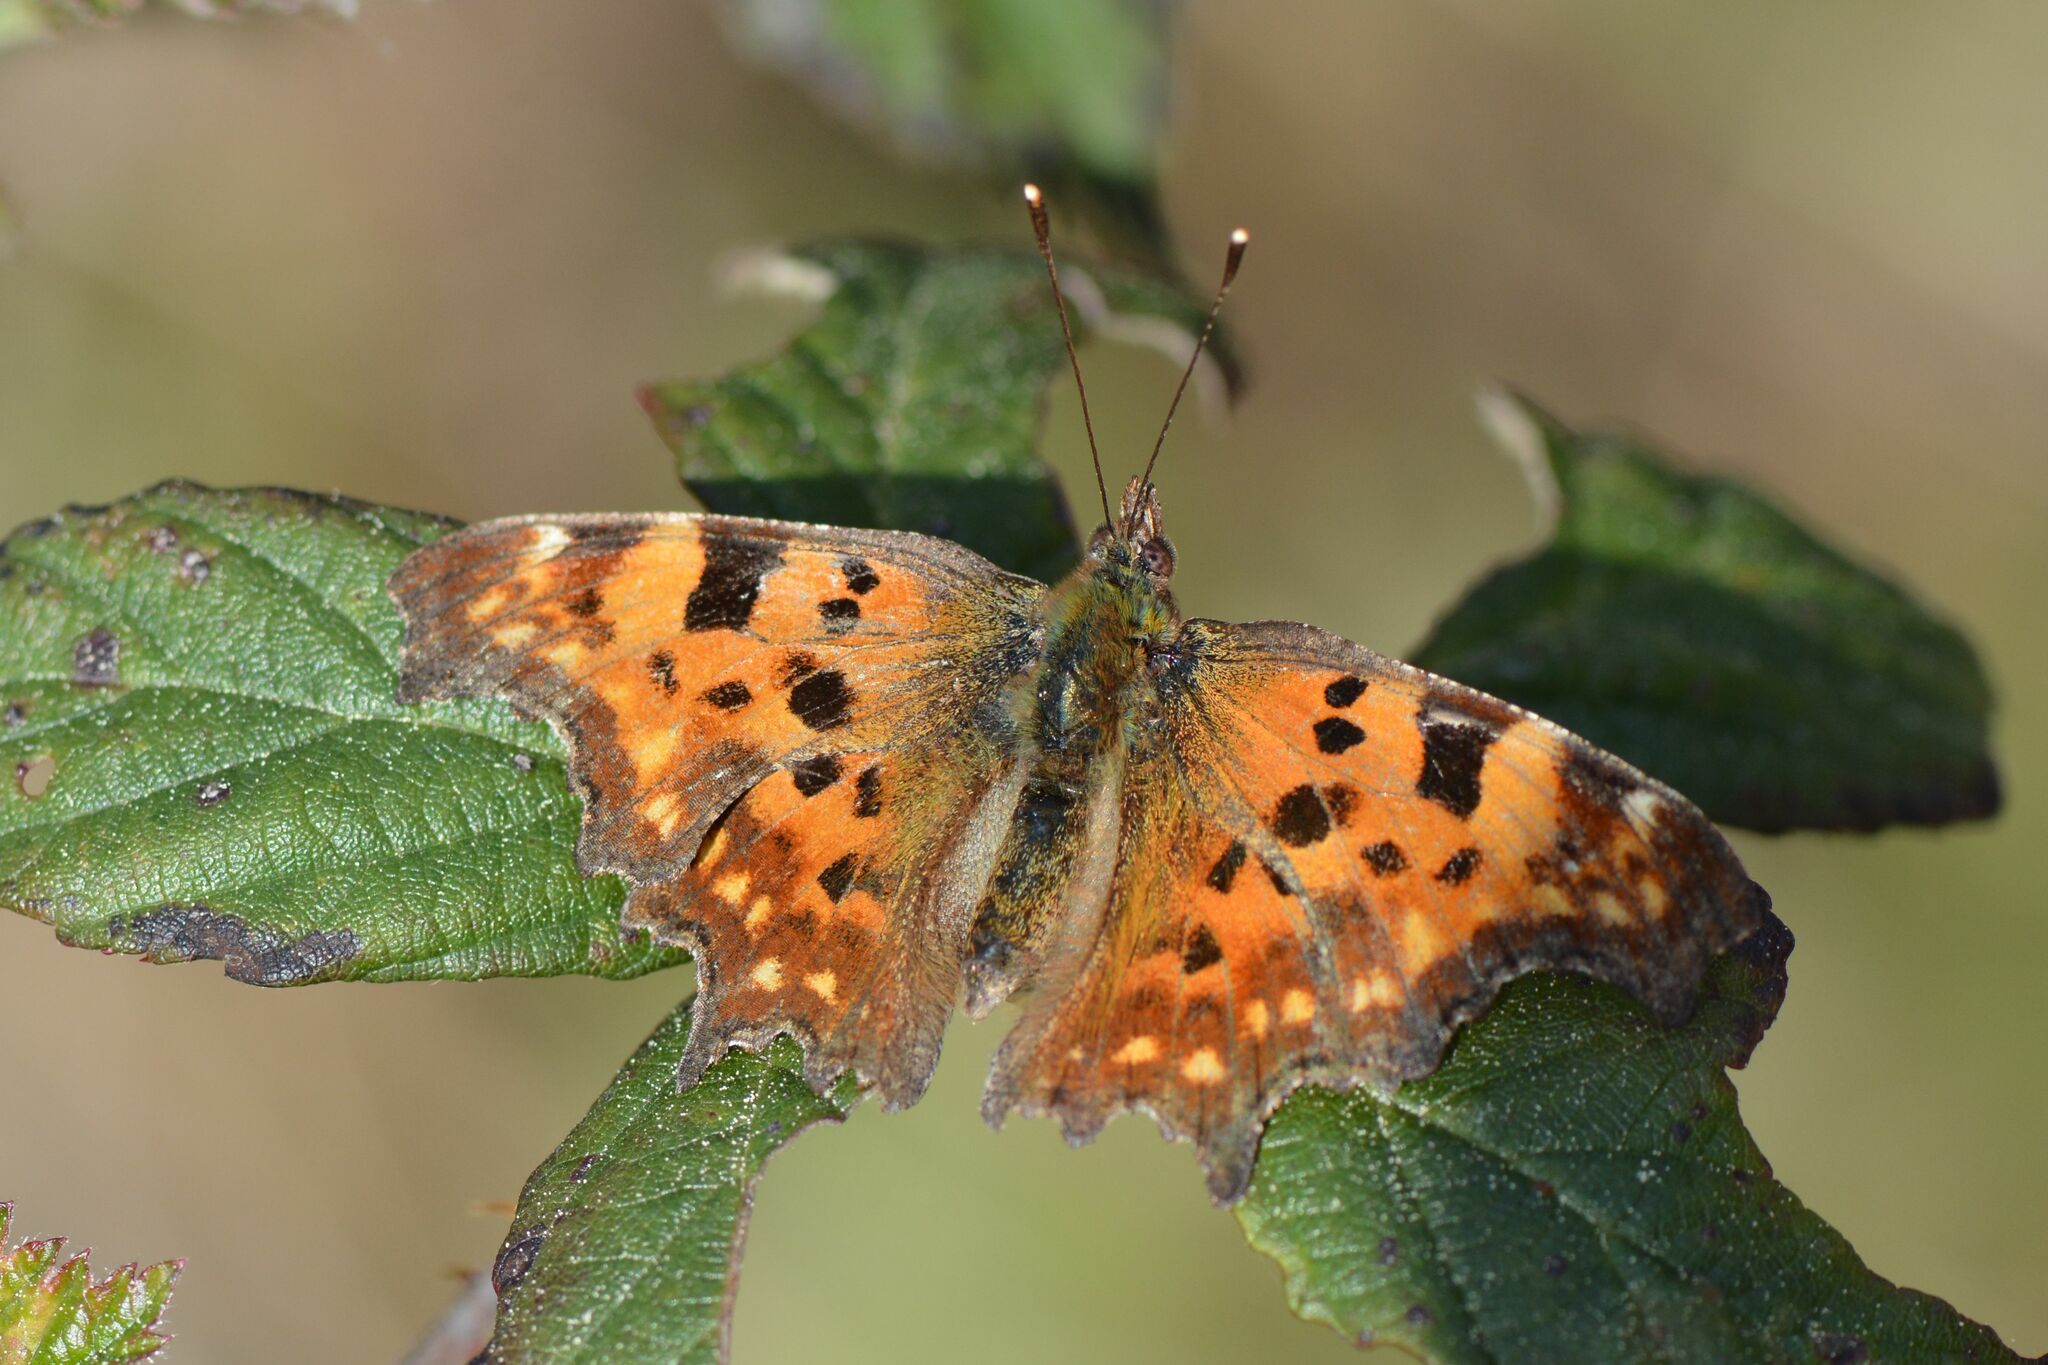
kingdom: Animalia
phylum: Arthropoda
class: Insecta
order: Lepidoptera
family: Nymphalidae
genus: Polygonia
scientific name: Polygonia c-album
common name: Comma
